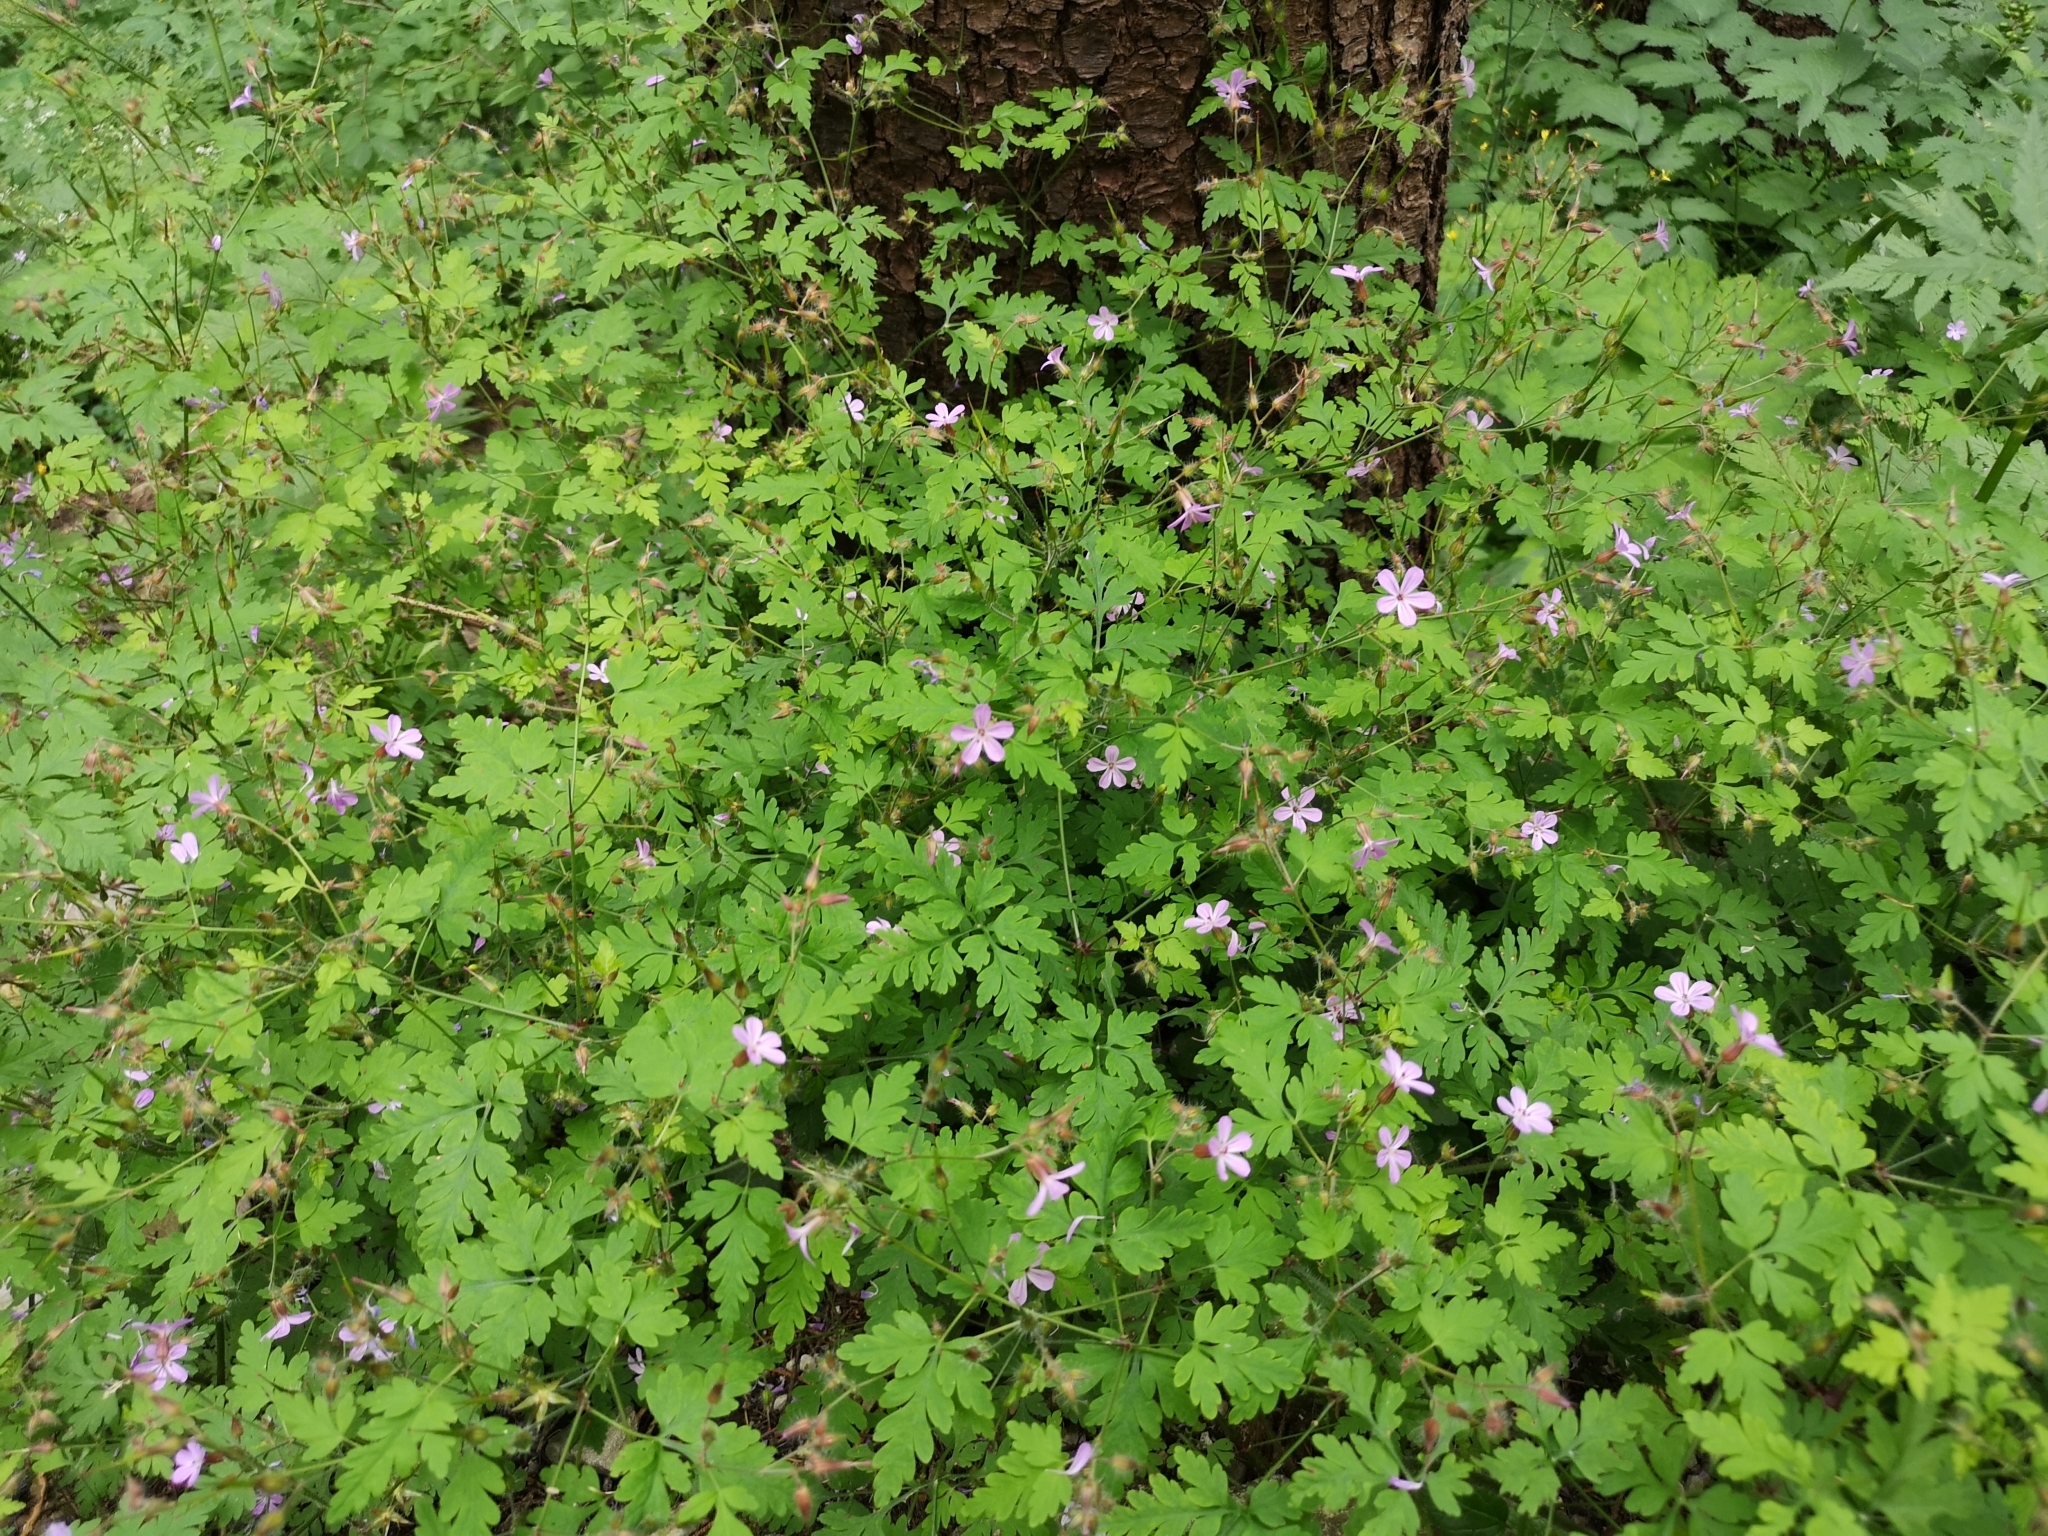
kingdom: Plantae
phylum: Tracheophyta
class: Magnoliopsida
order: Geraniales
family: Geraniaceae
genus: Geranium
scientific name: Geranium robertianum
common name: Herb-robert
